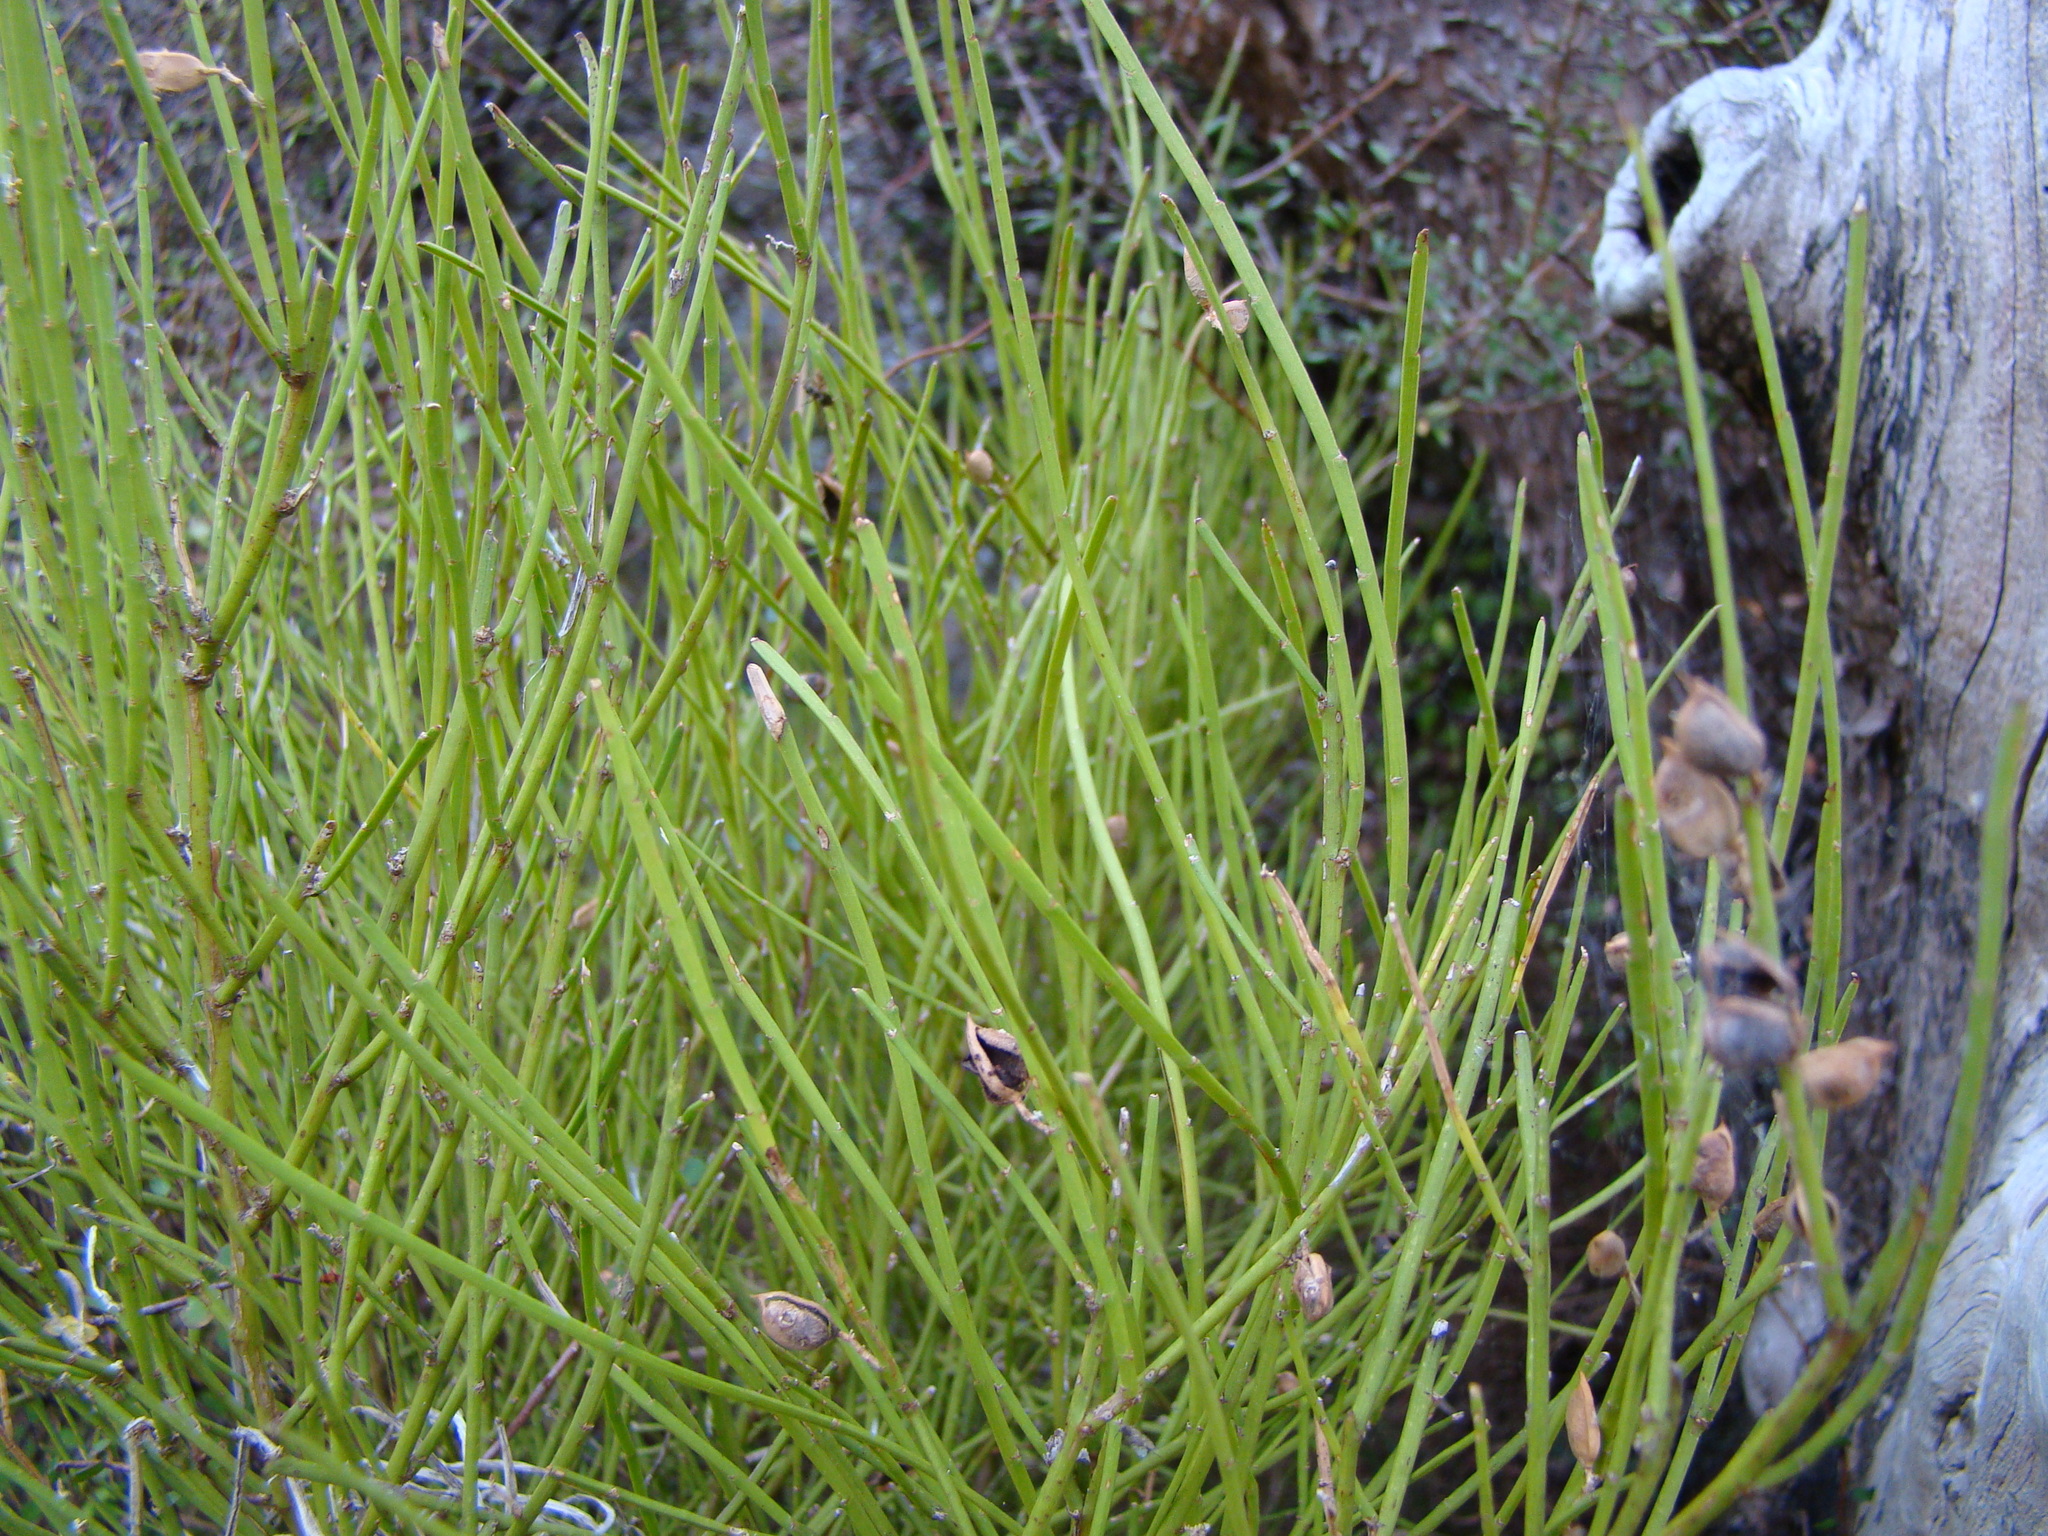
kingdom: Plantae
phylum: Tracheophyta
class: Magnoliopsida
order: Fabales
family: Fabaceae
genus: Carmichaelia
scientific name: Carmichaelia australis
